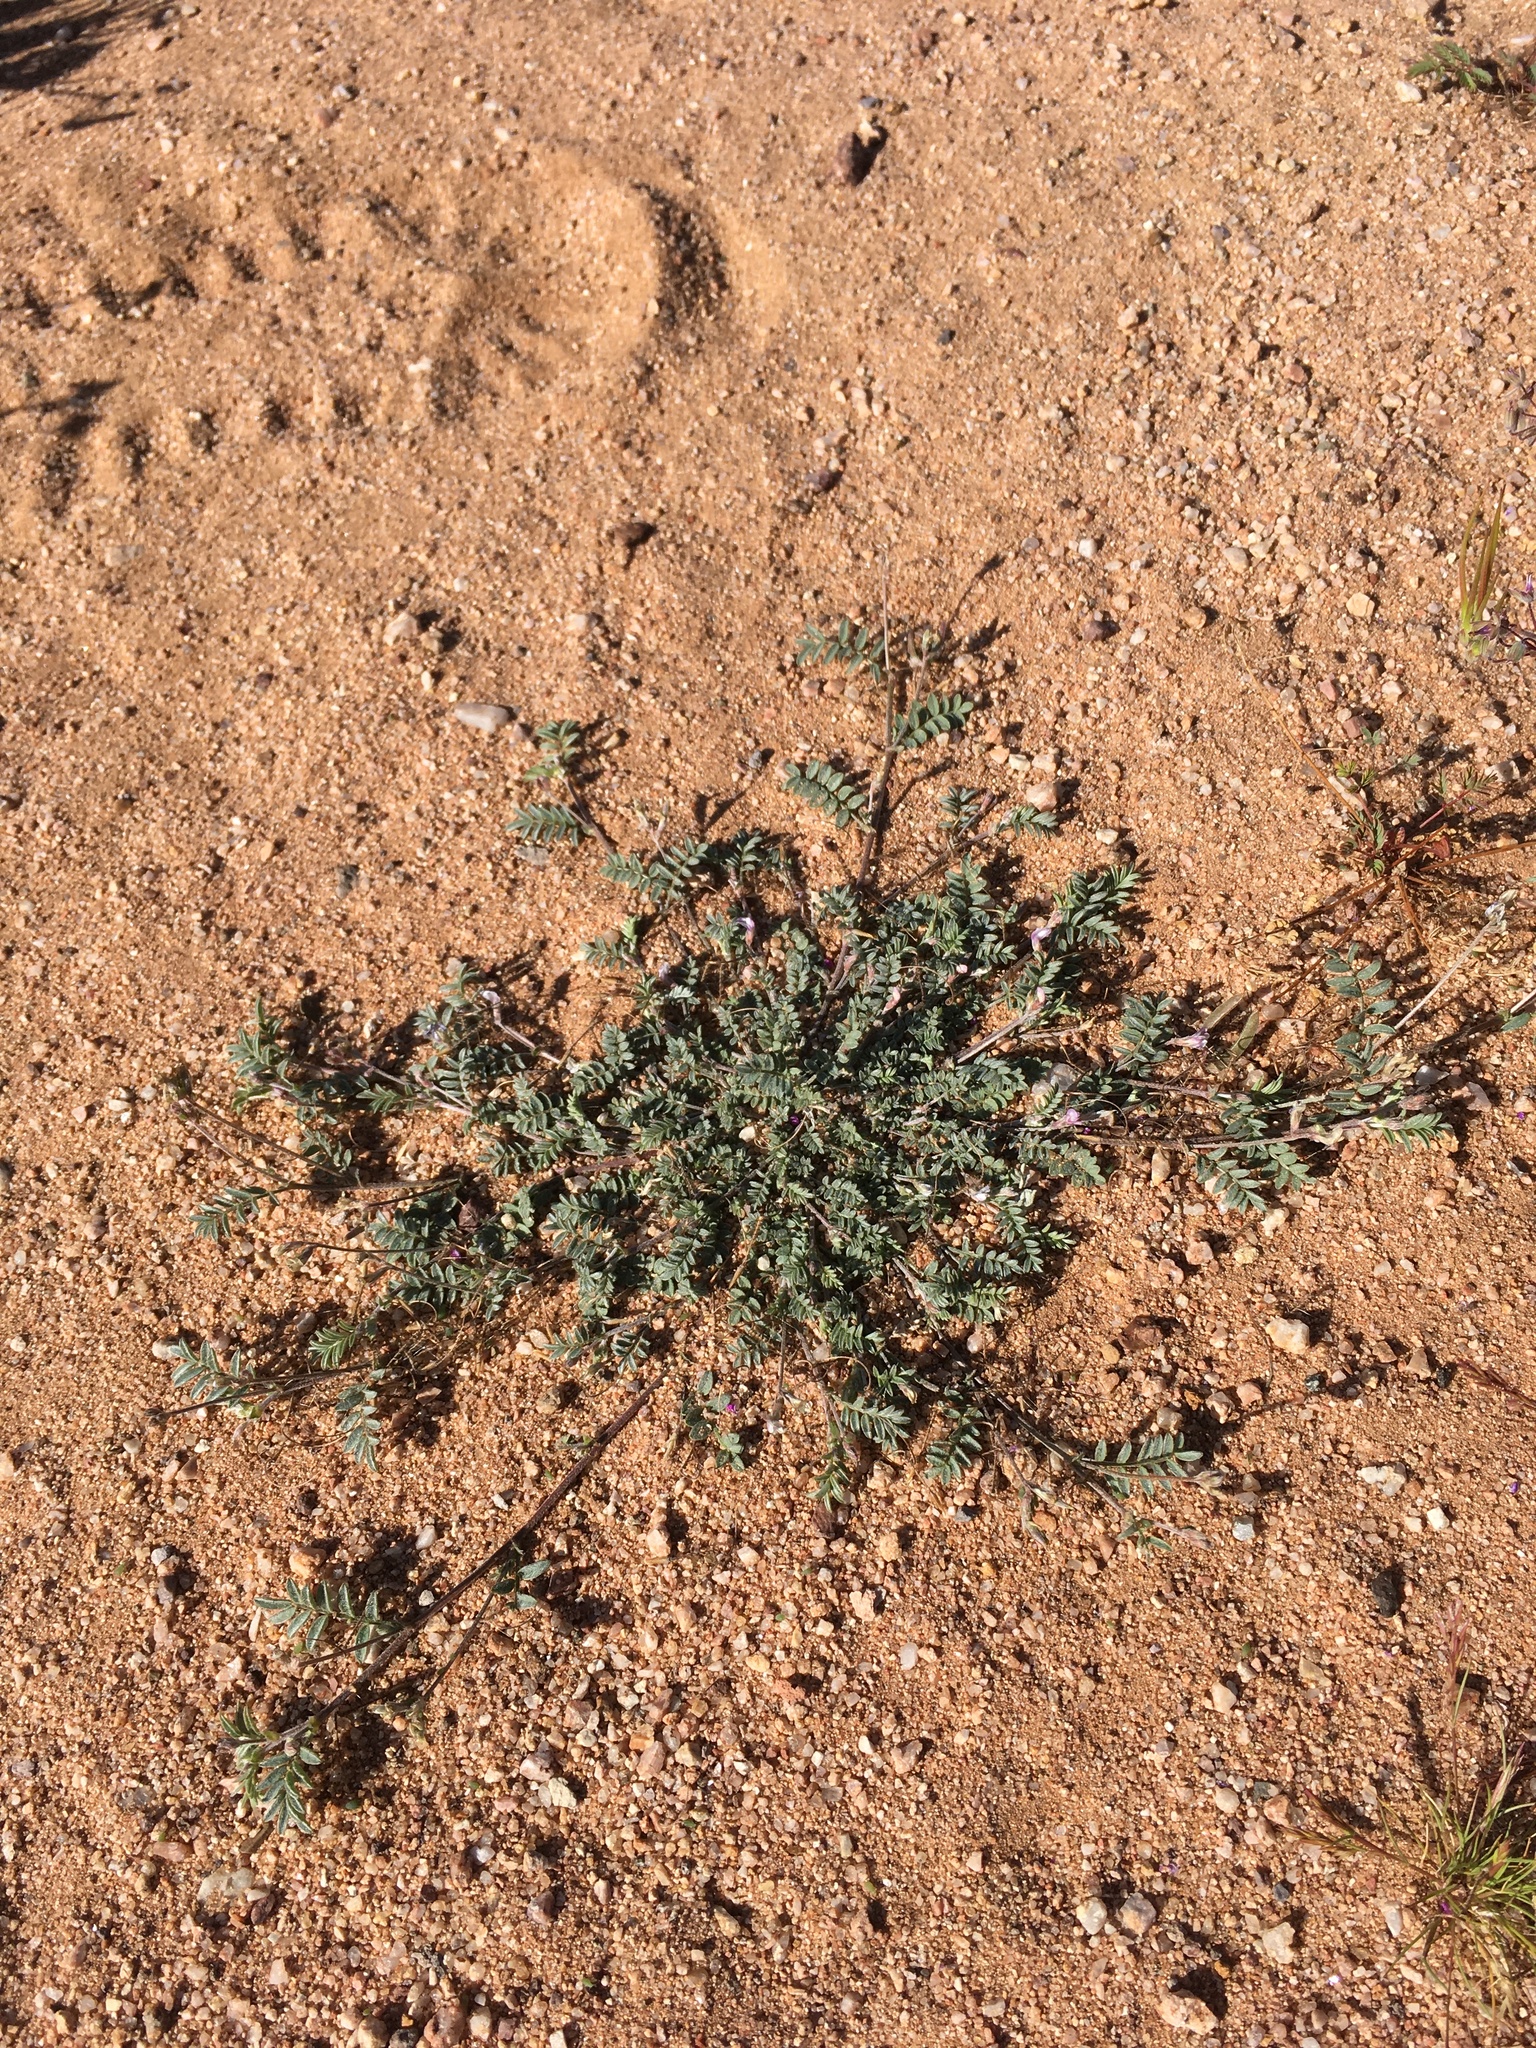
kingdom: Plantae
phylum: Tracheophyta
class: Magnoliopsida
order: Fabales
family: Fabaceae
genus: Astragalus
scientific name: Astragalus nuttallianus
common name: Smallflowered milkvetch
